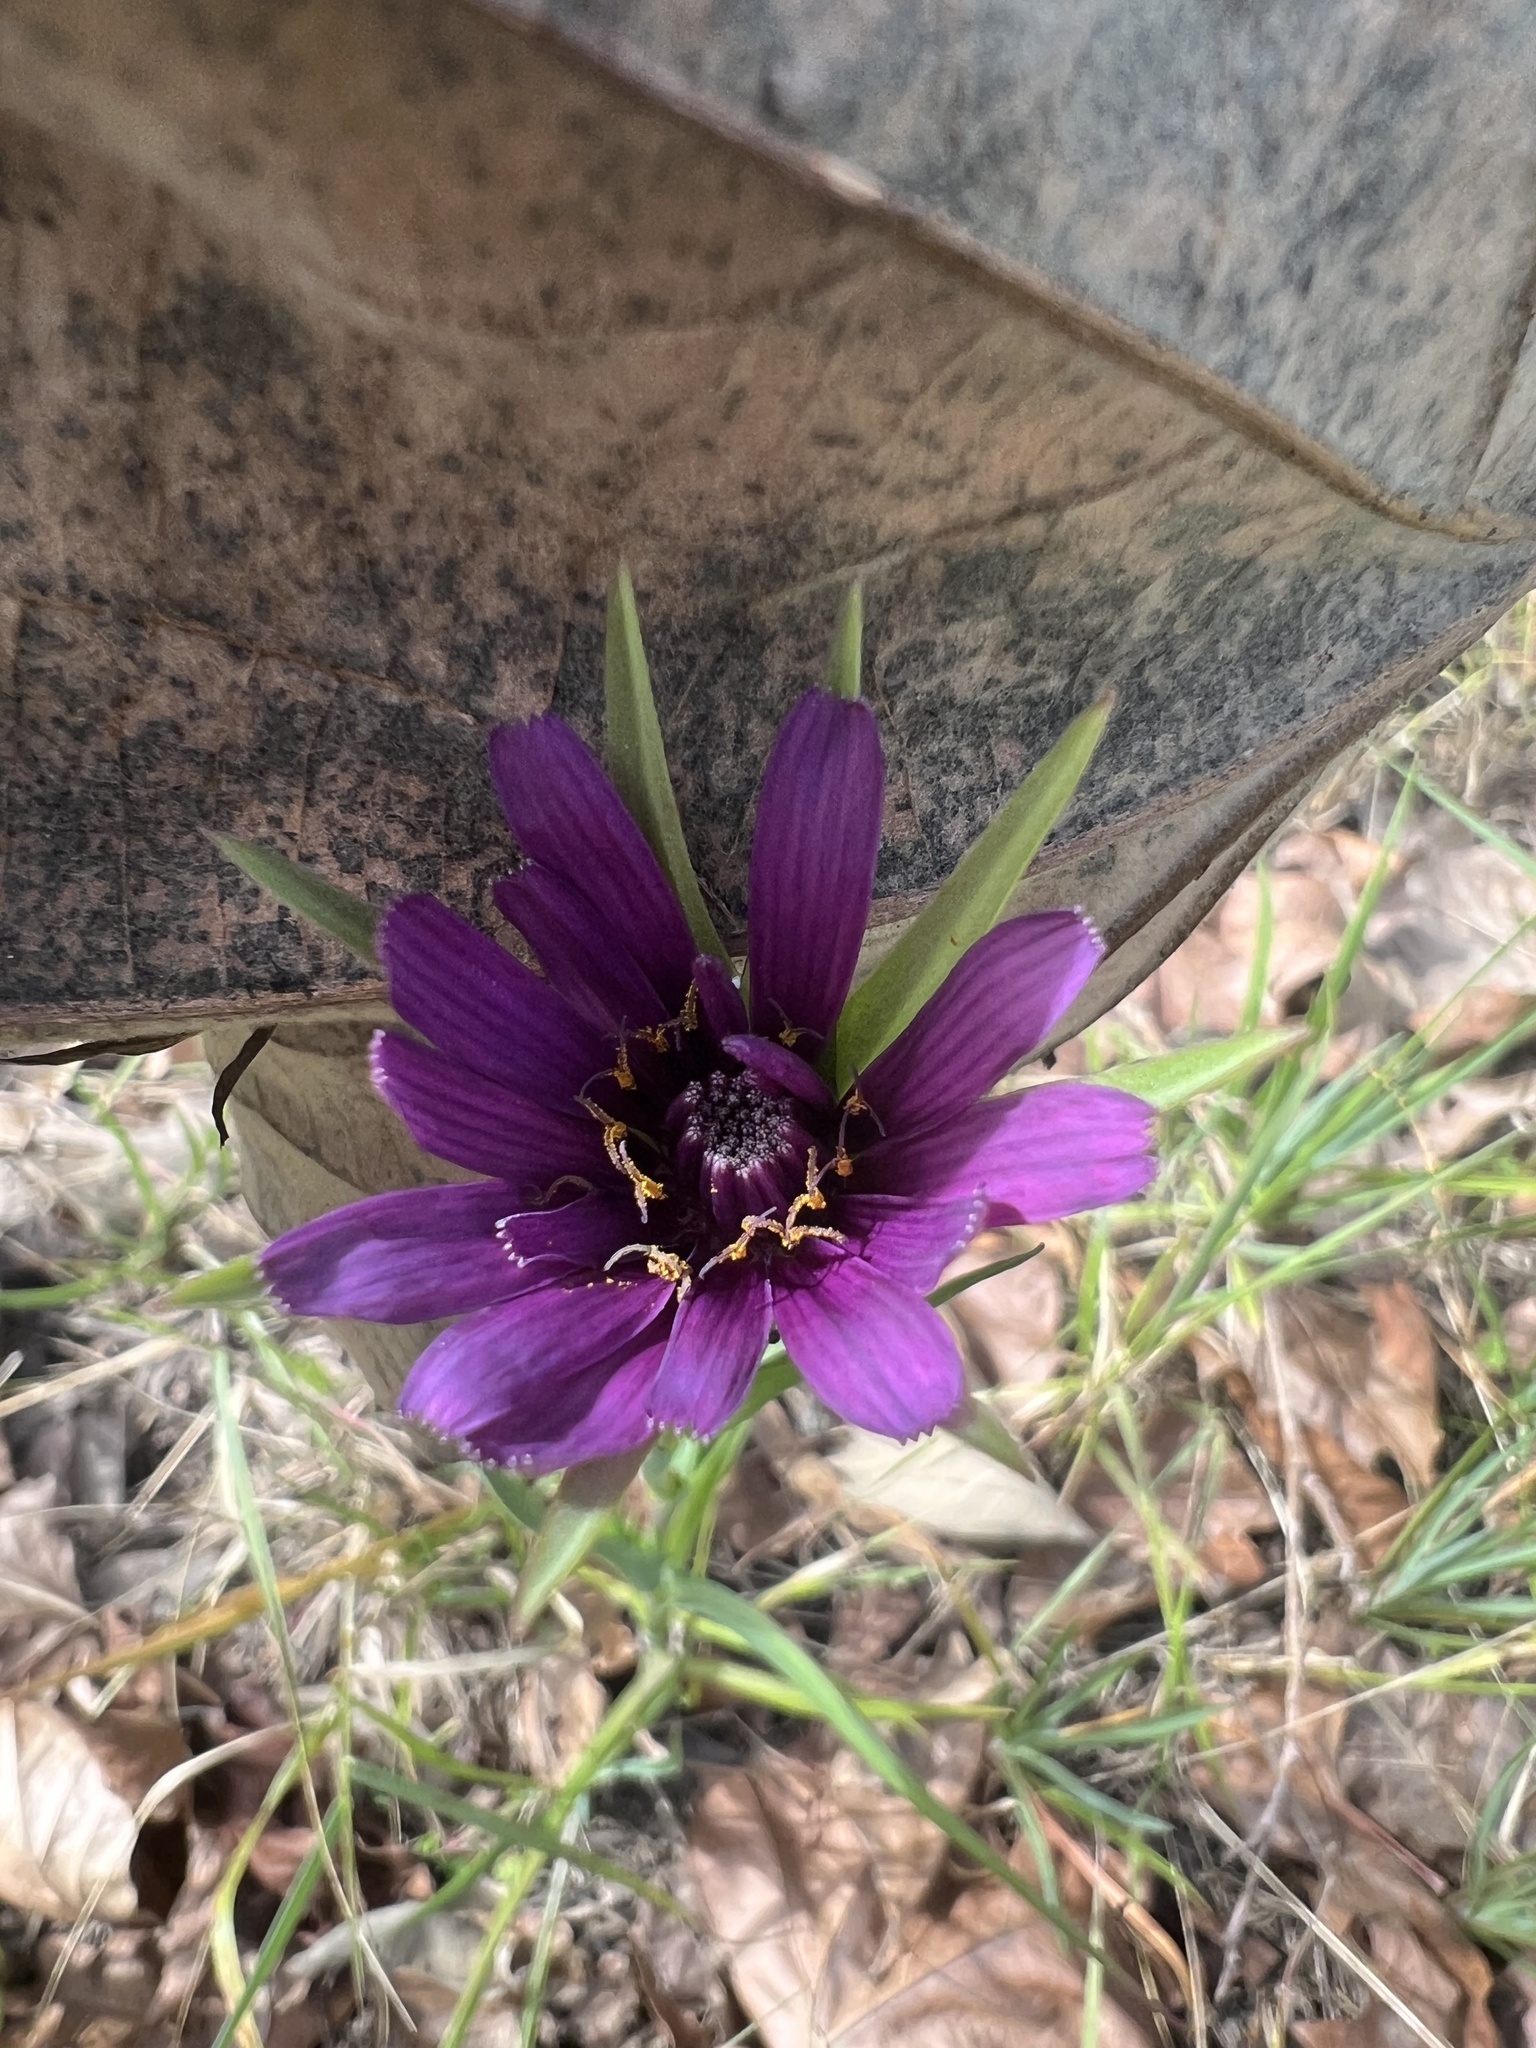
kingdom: Plantae
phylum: Tracheophyta
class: Magnoliopsida
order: Asterales
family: Asteraceae
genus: Tragopogon
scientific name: Tragopogon porrifolius
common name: Salsify
